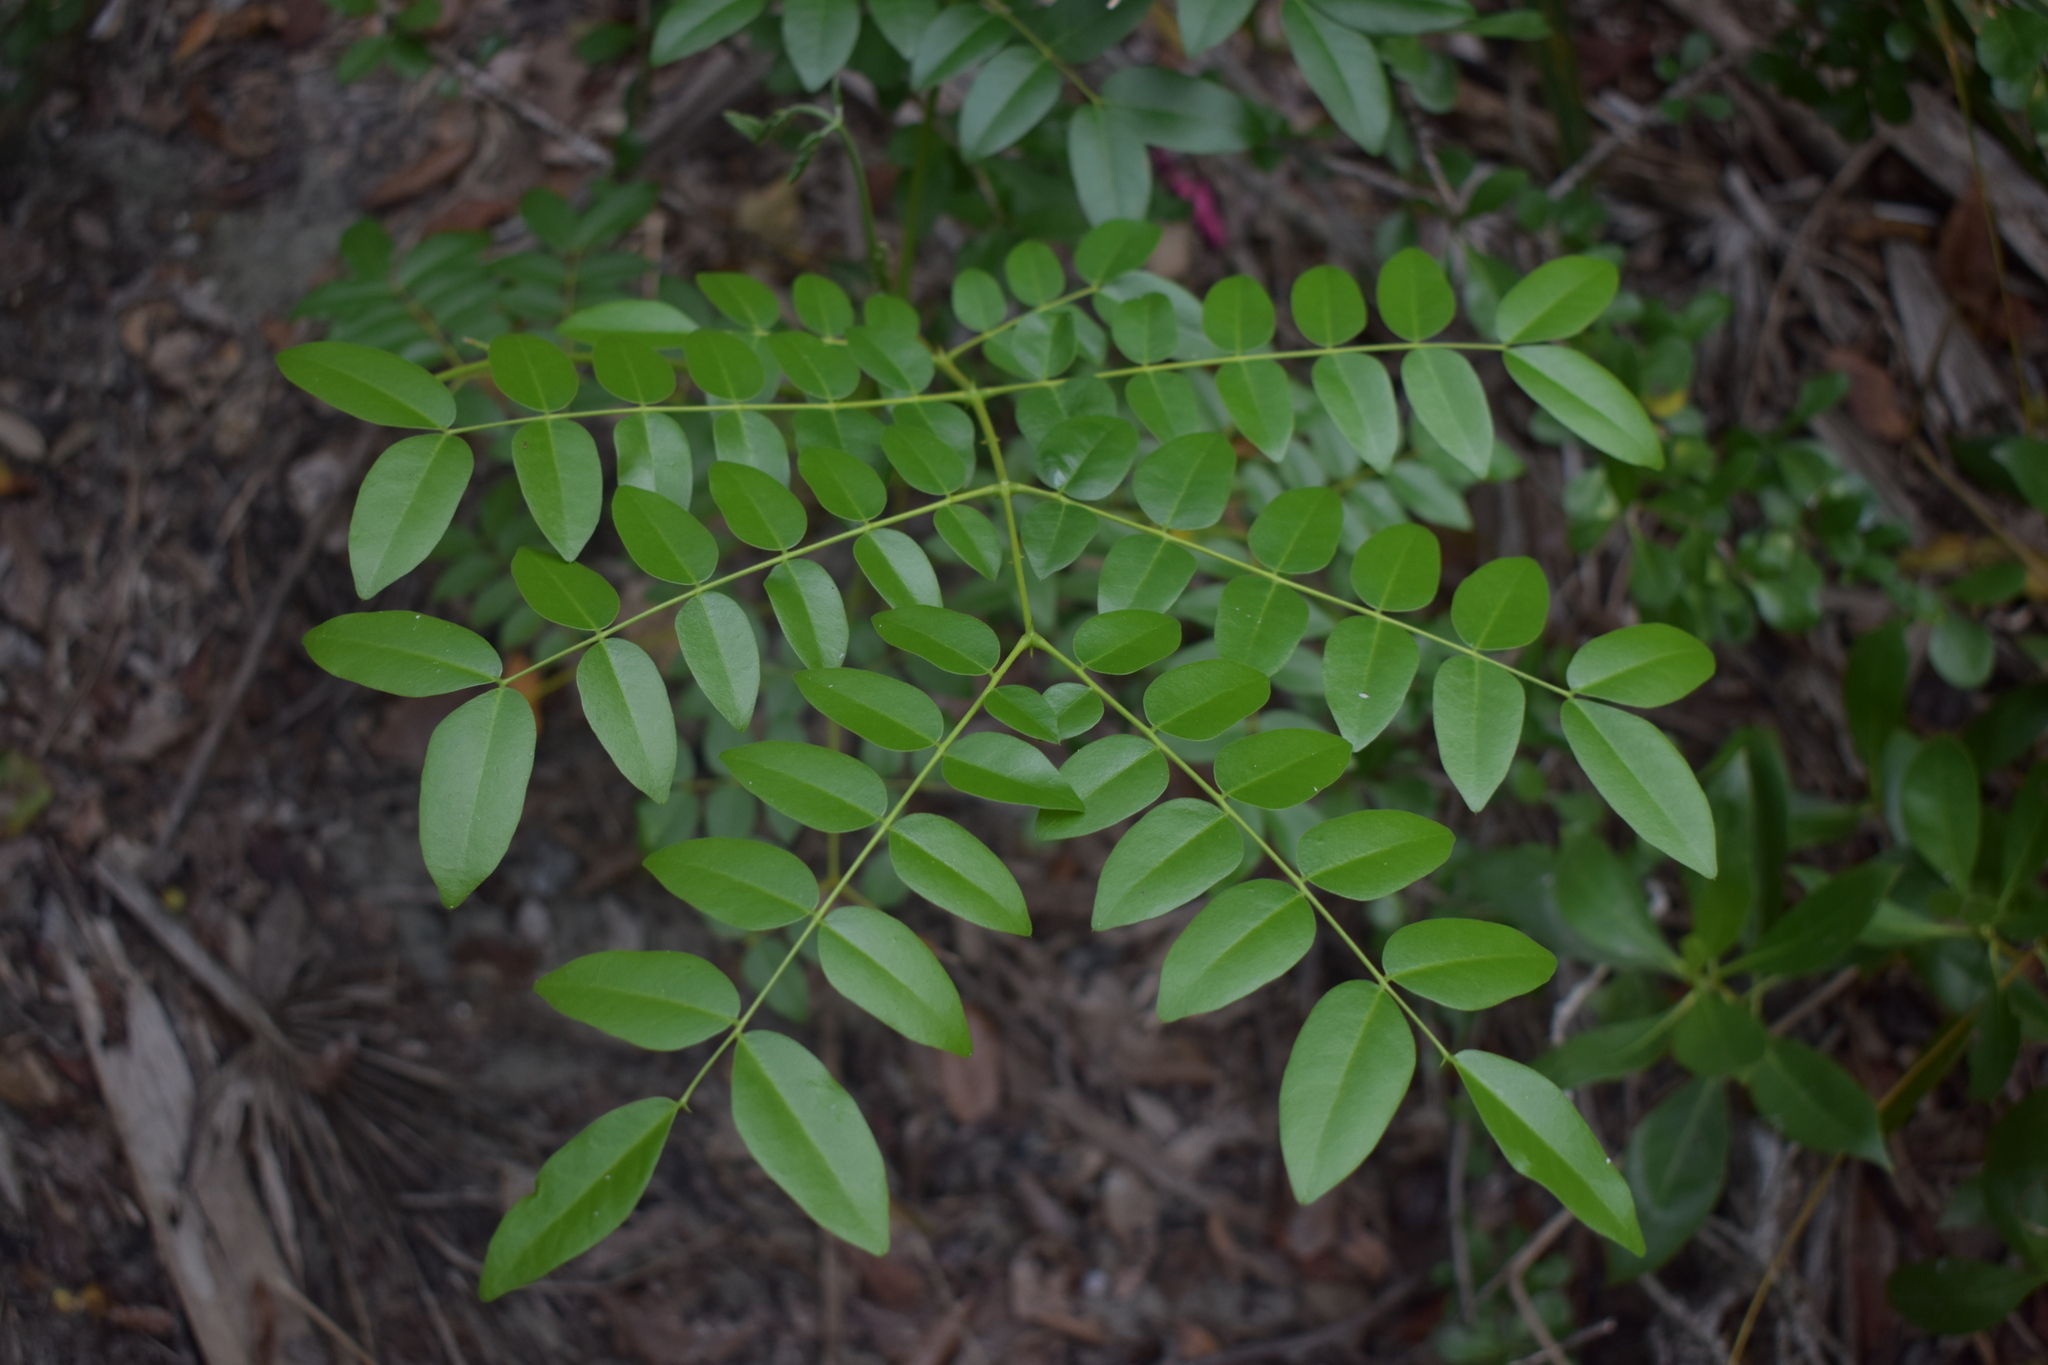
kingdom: Plantae
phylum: Tracheophyta
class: Magnoliopsida
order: Fabales
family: Fabaceae
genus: Guilandina
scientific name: Guilandina bonduc
